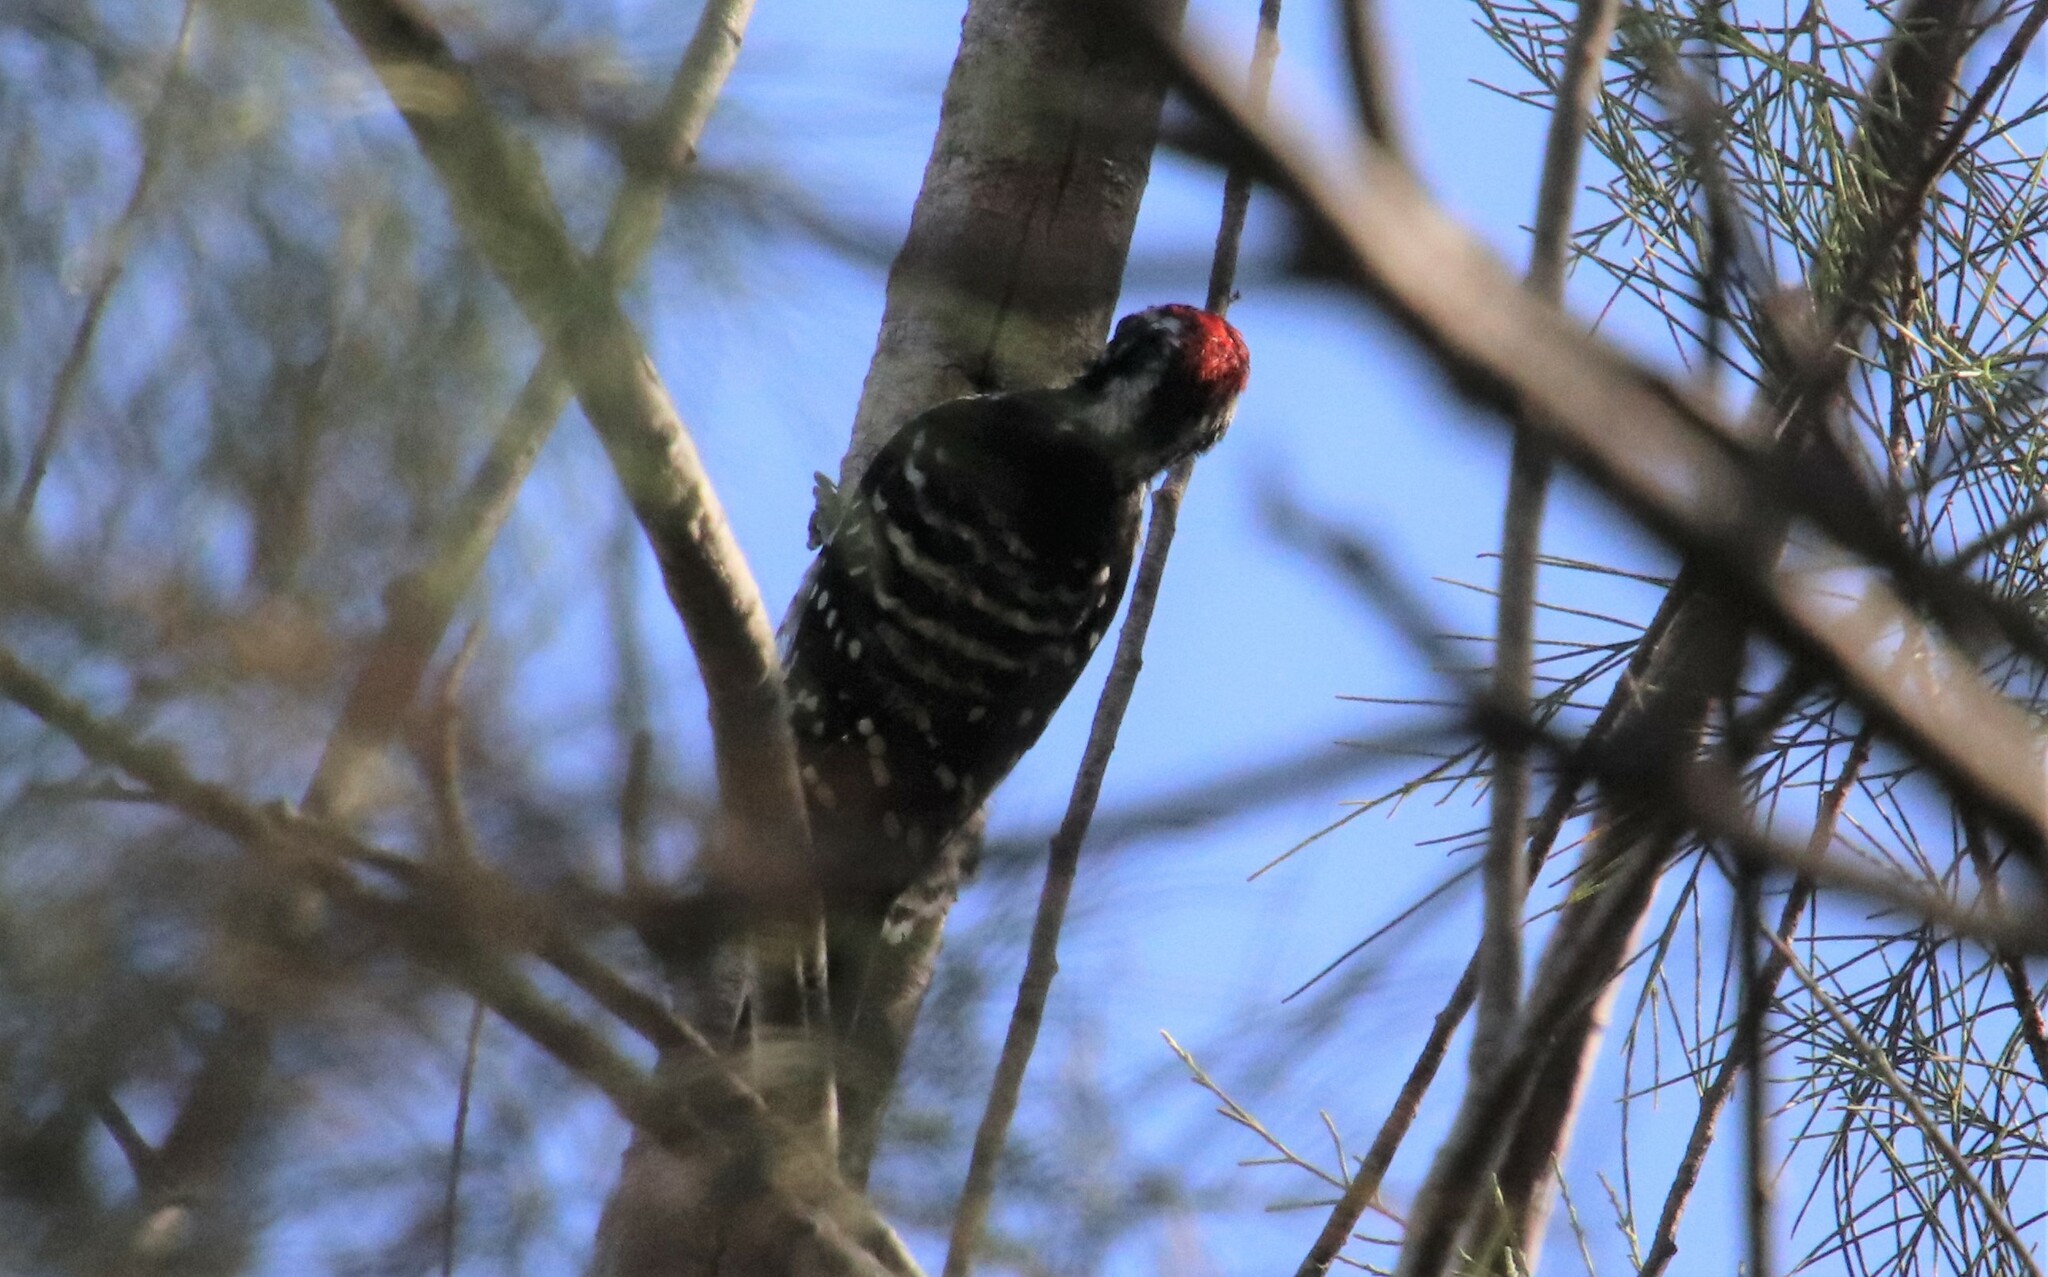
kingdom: Animalia
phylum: Chordata
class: Aves
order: Piciformes
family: Picidae
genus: Dryobates
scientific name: Dryobates nuttallii
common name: Nuttall's woodpecker
